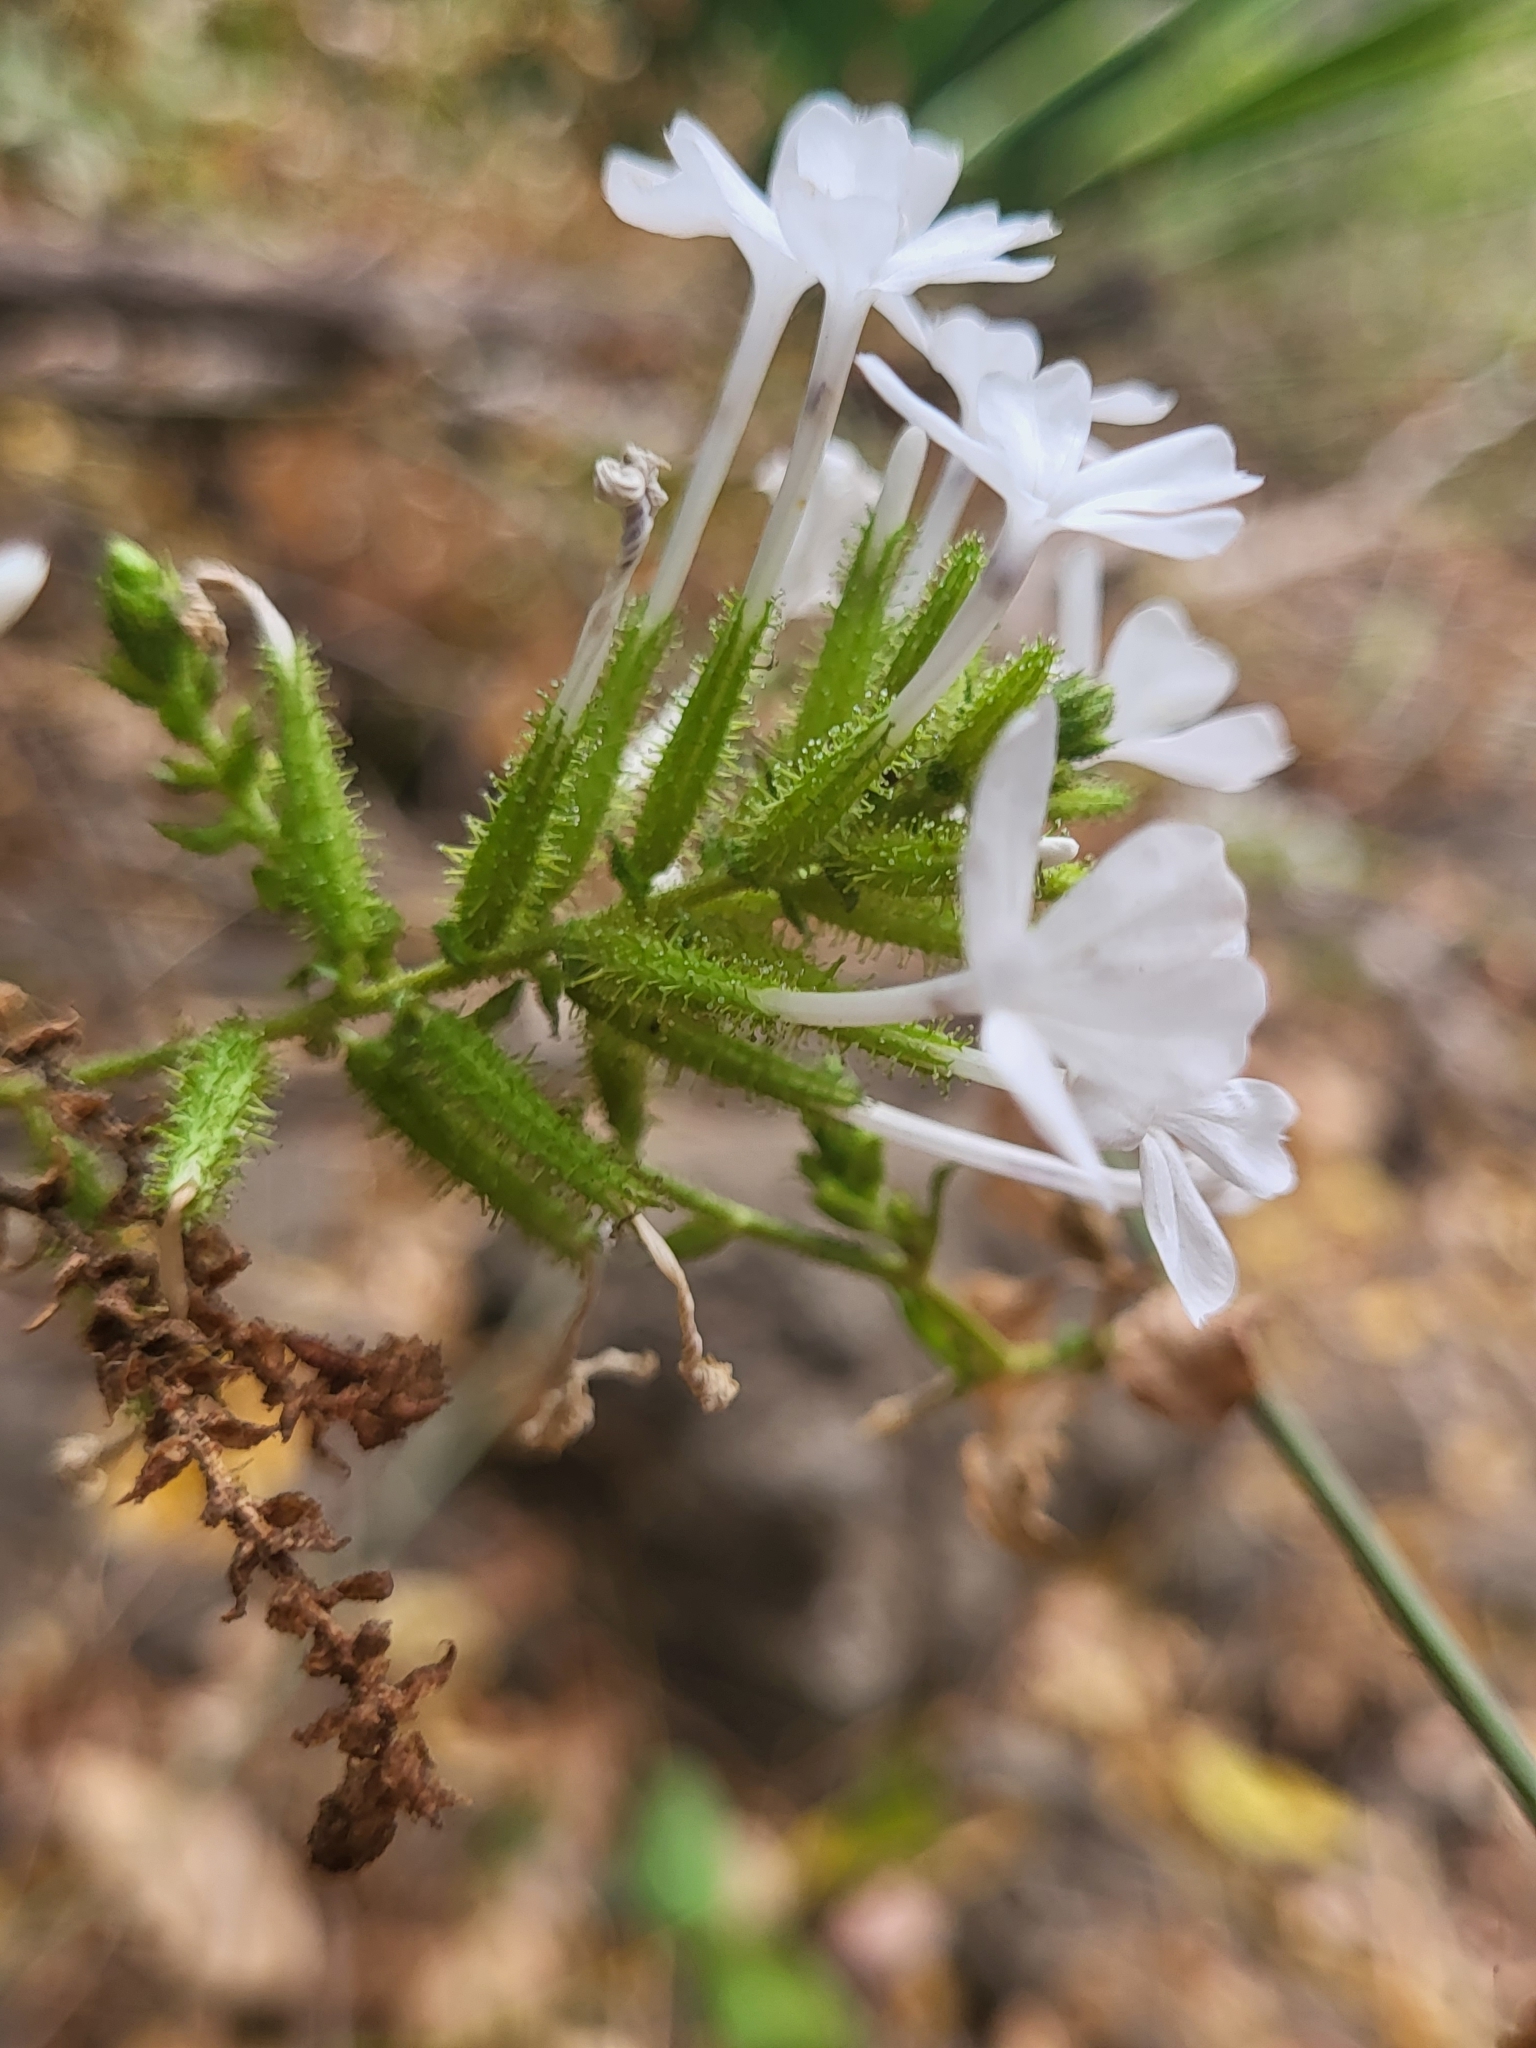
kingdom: Plantae
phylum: Tracheophyta
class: Magnoliopsida
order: Caryophyllales
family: Plumbaginaceae
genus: Plumbago
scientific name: Plumbago zeylanica
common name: Doctorbush
